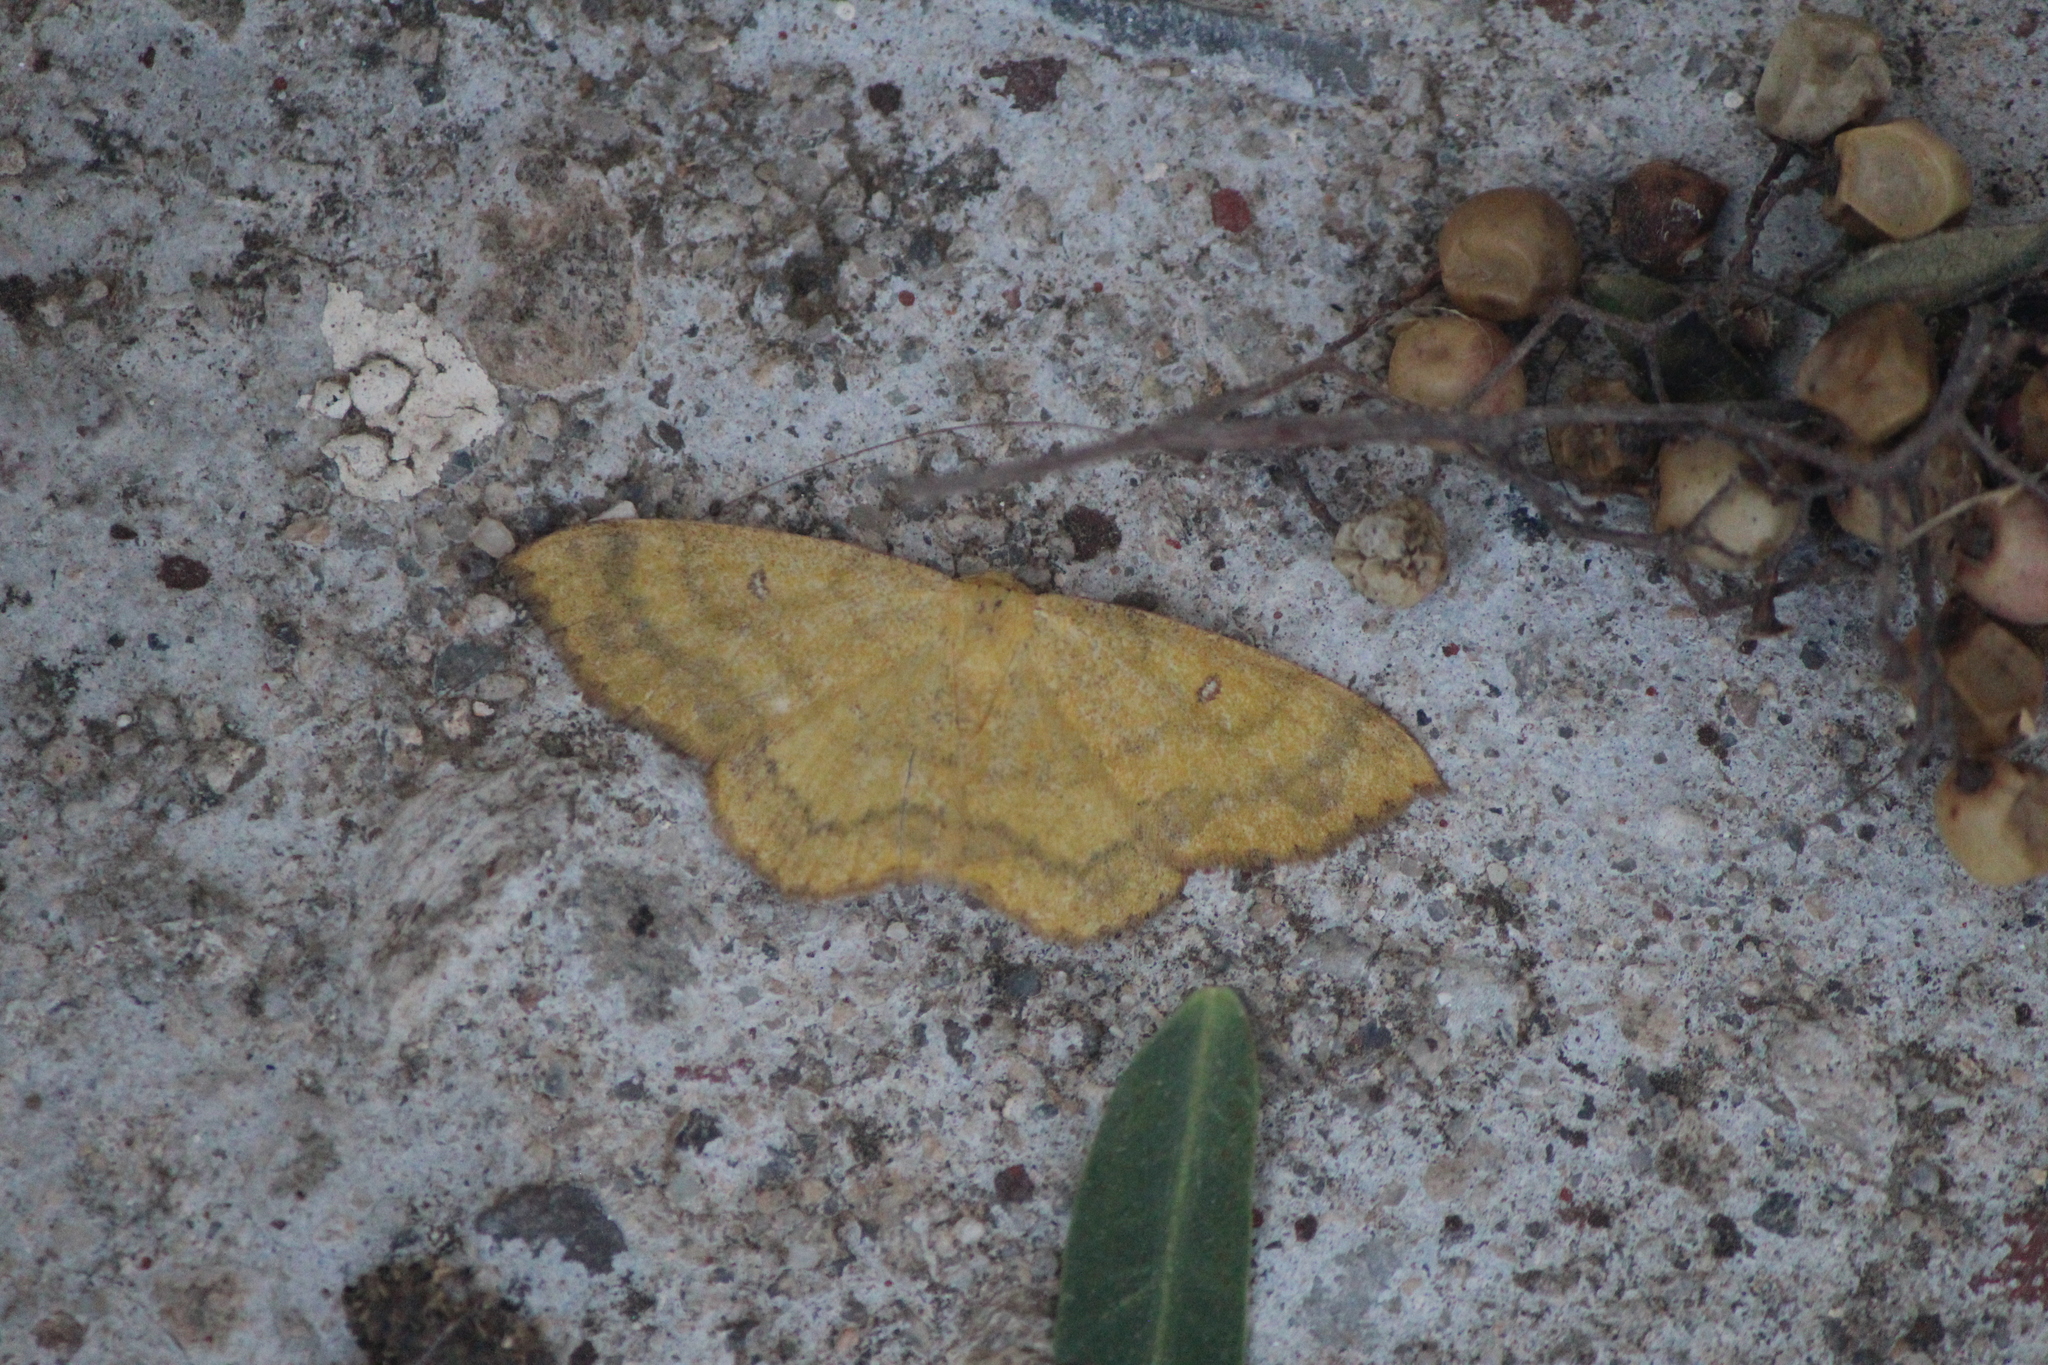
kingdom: Animalia
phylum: Arthropoda
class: Insecta
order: Lepidoptera
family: Geometridae
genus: Semaeopus
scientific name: Semaeopus gracilata
